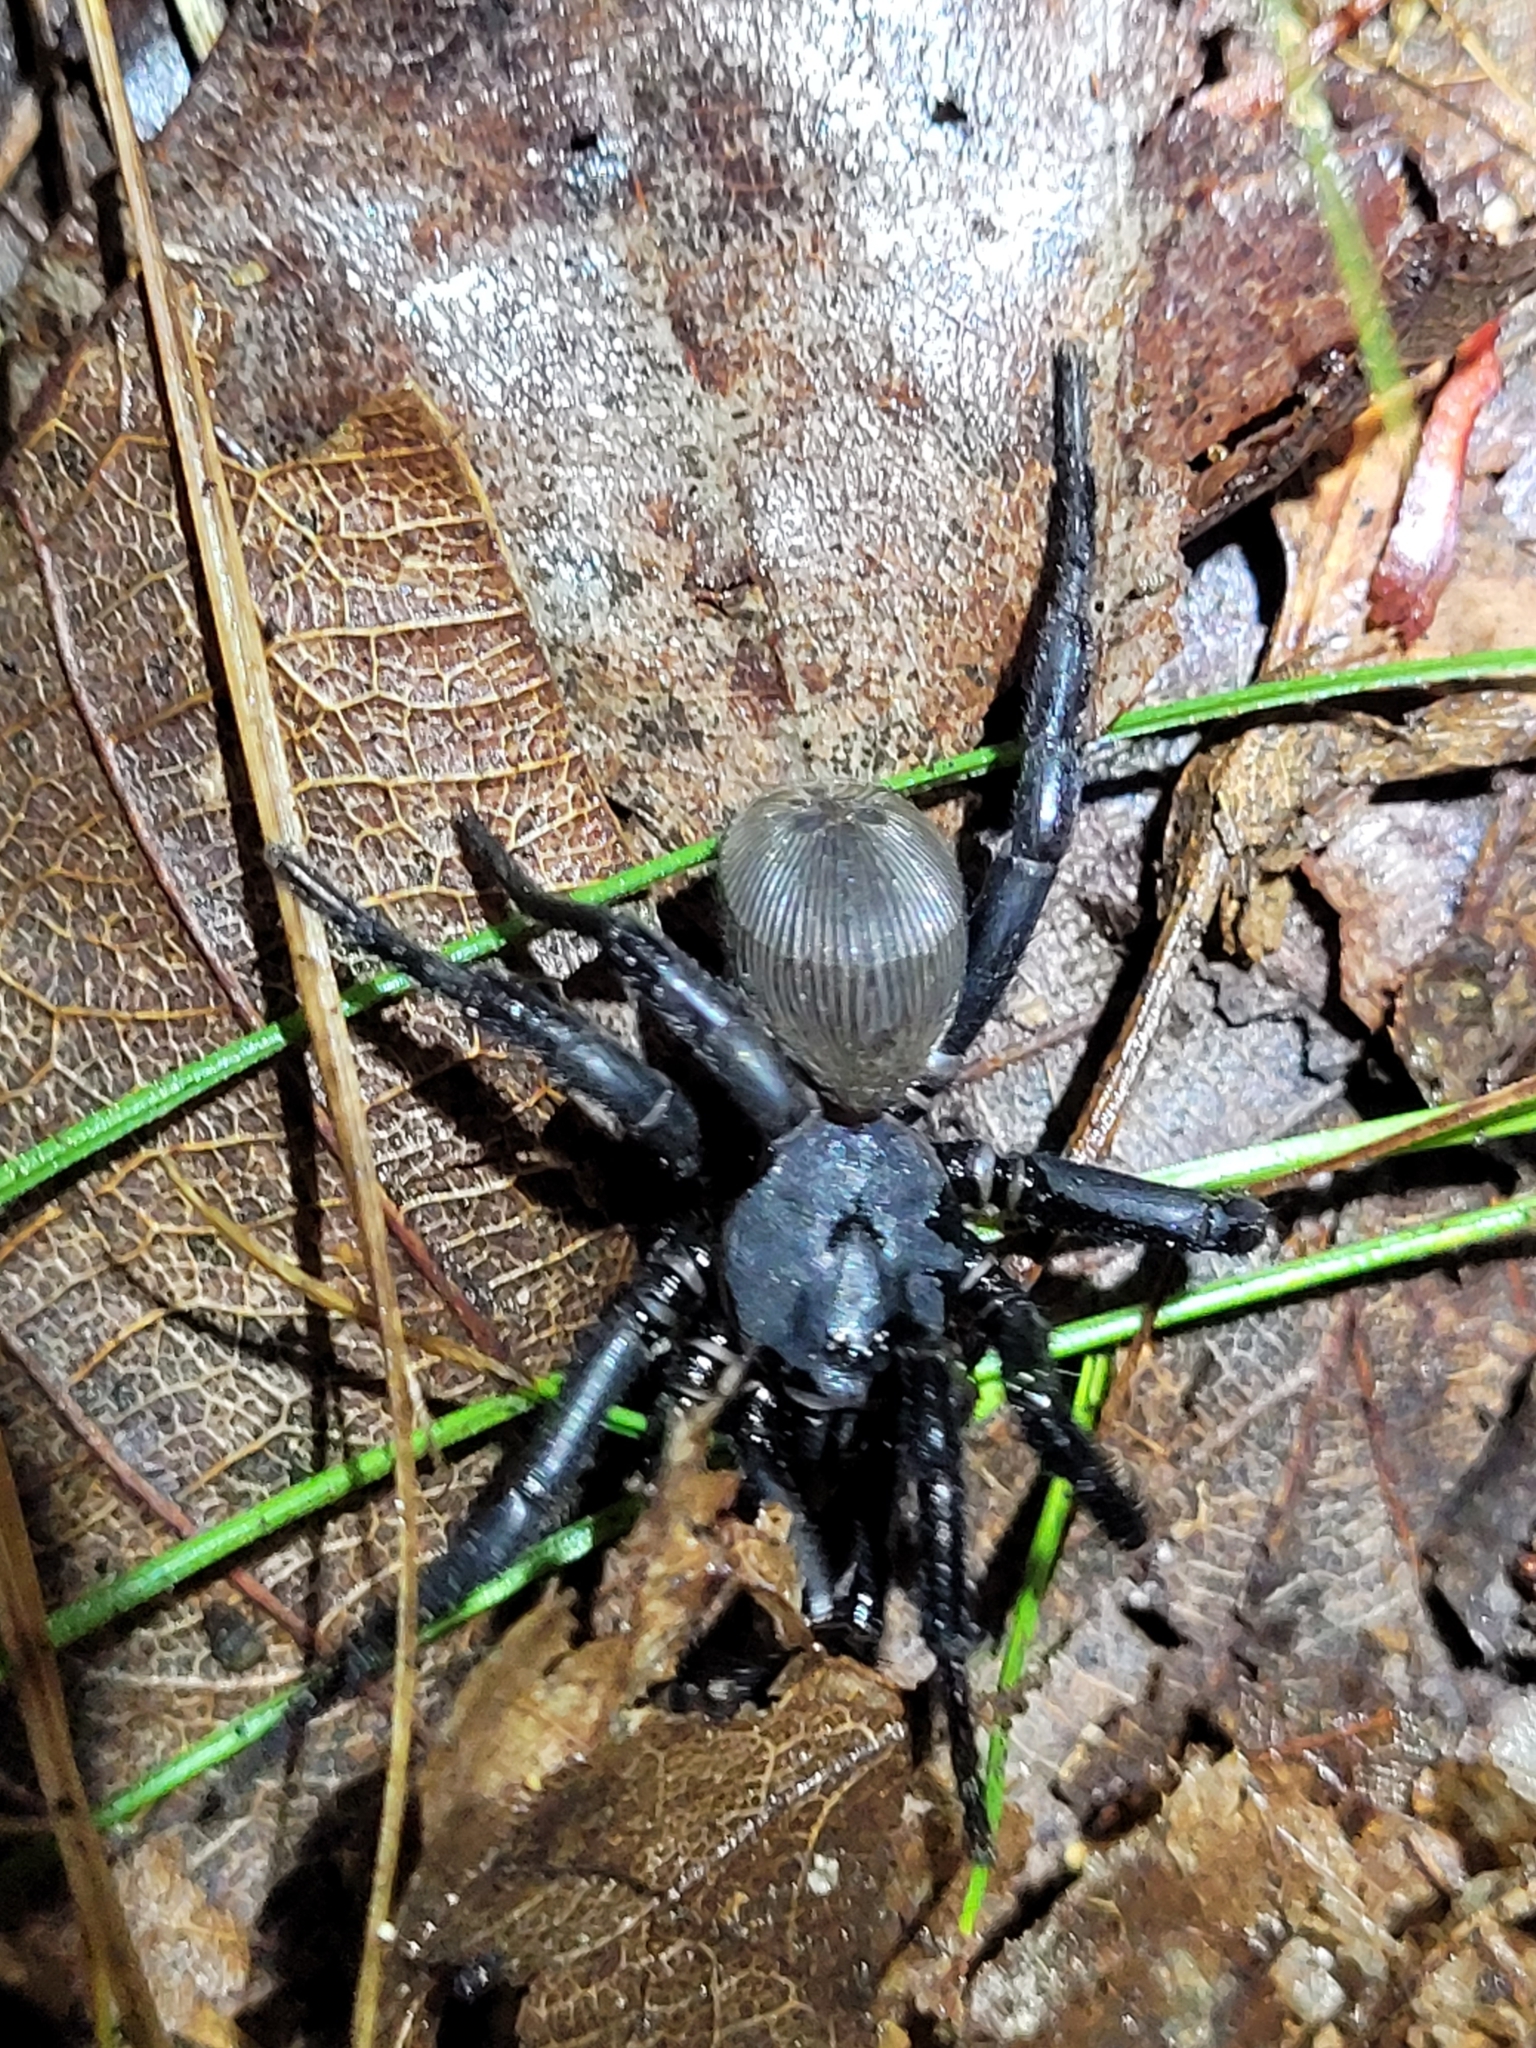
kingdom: Animalia
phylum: Arthropoda
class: Arachnida
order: Araneae
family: Halonoproctidae
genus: Cyclocosmia
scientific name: Cyclocosmia truncata
